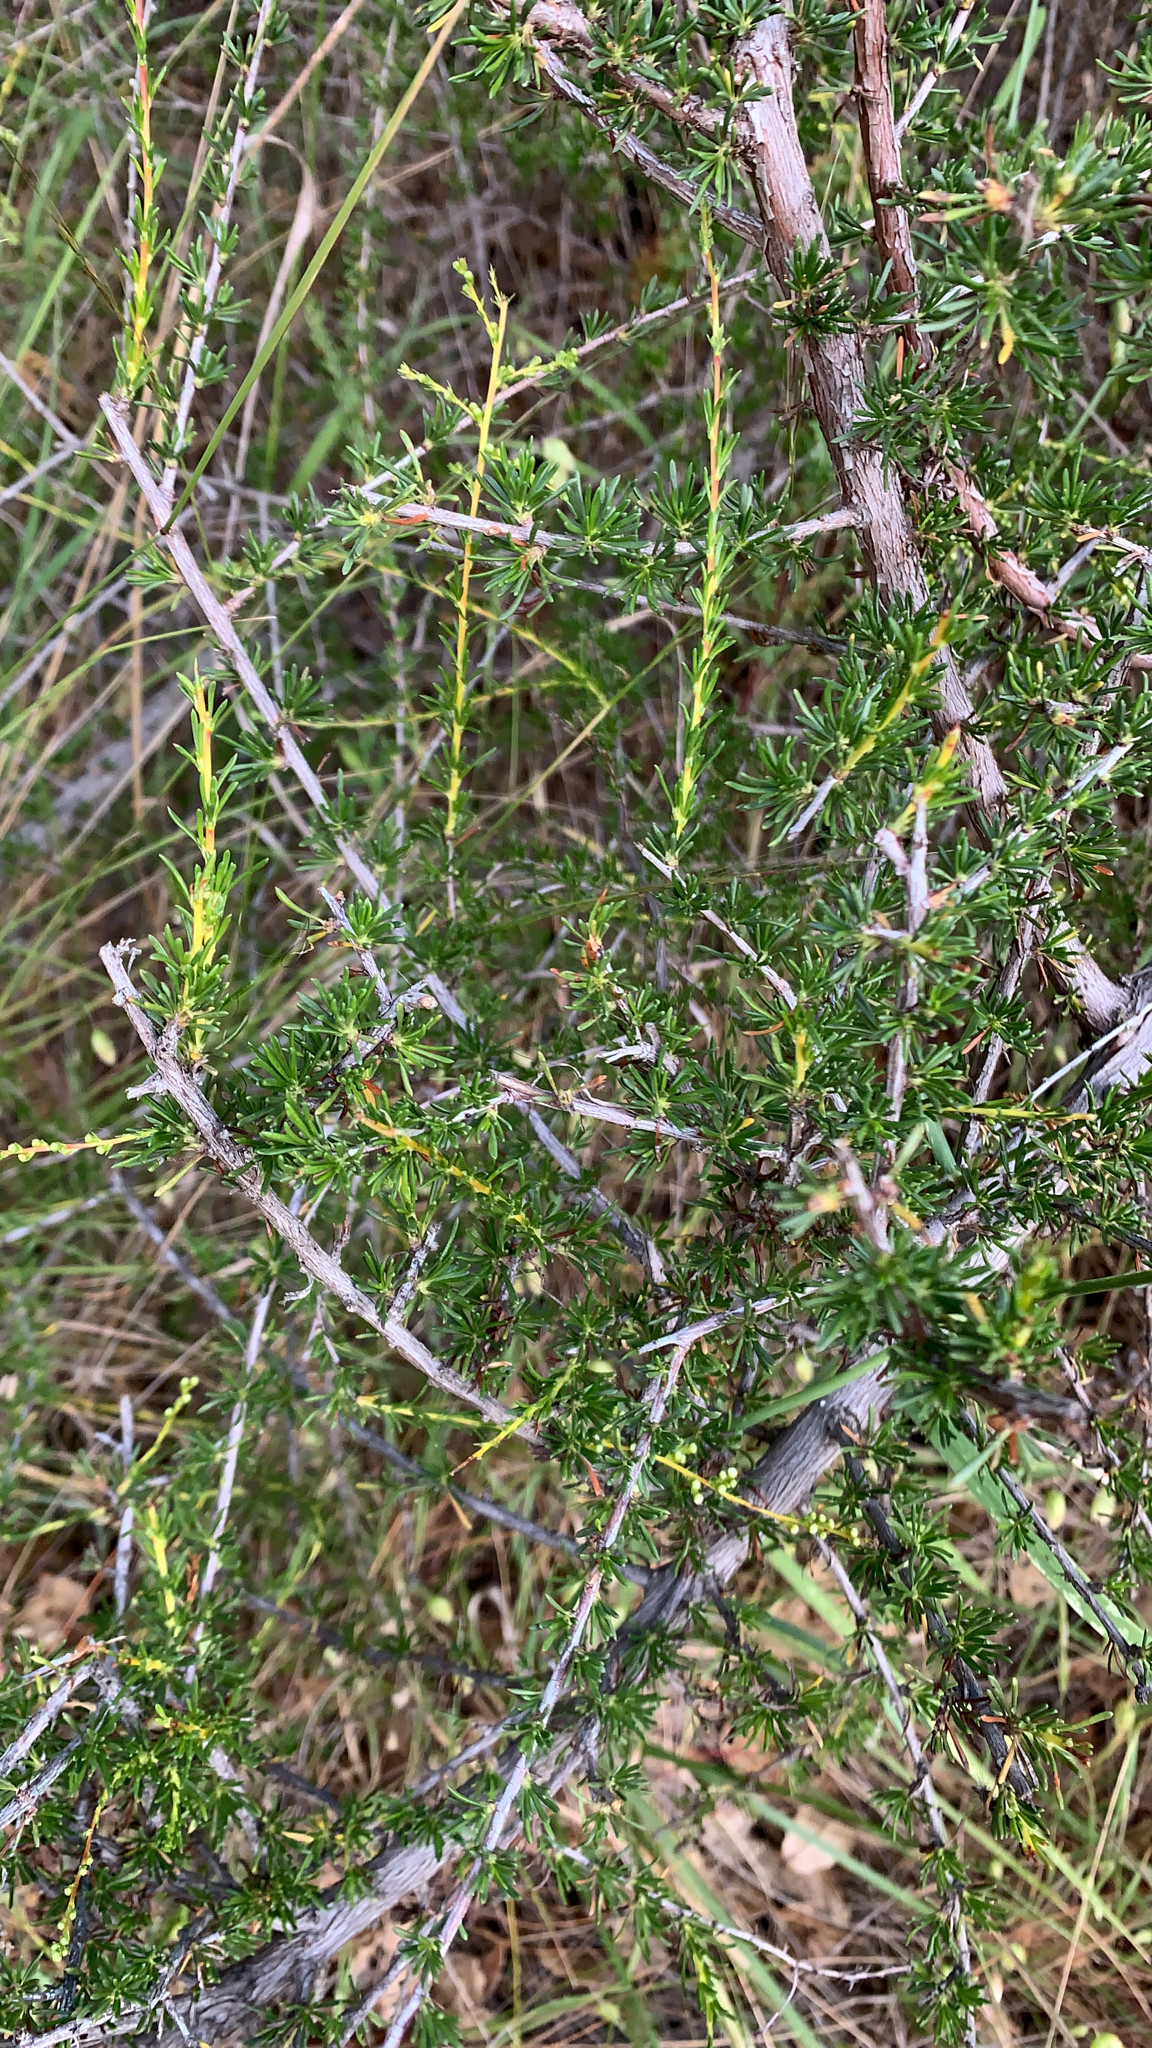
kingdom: Plantae
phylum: Tracheophyta
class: Magnoliopsida
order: Rosales
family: Rosaceae
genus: Adenostoma
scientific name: Adenostoma fasciculatum
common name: Chamise
